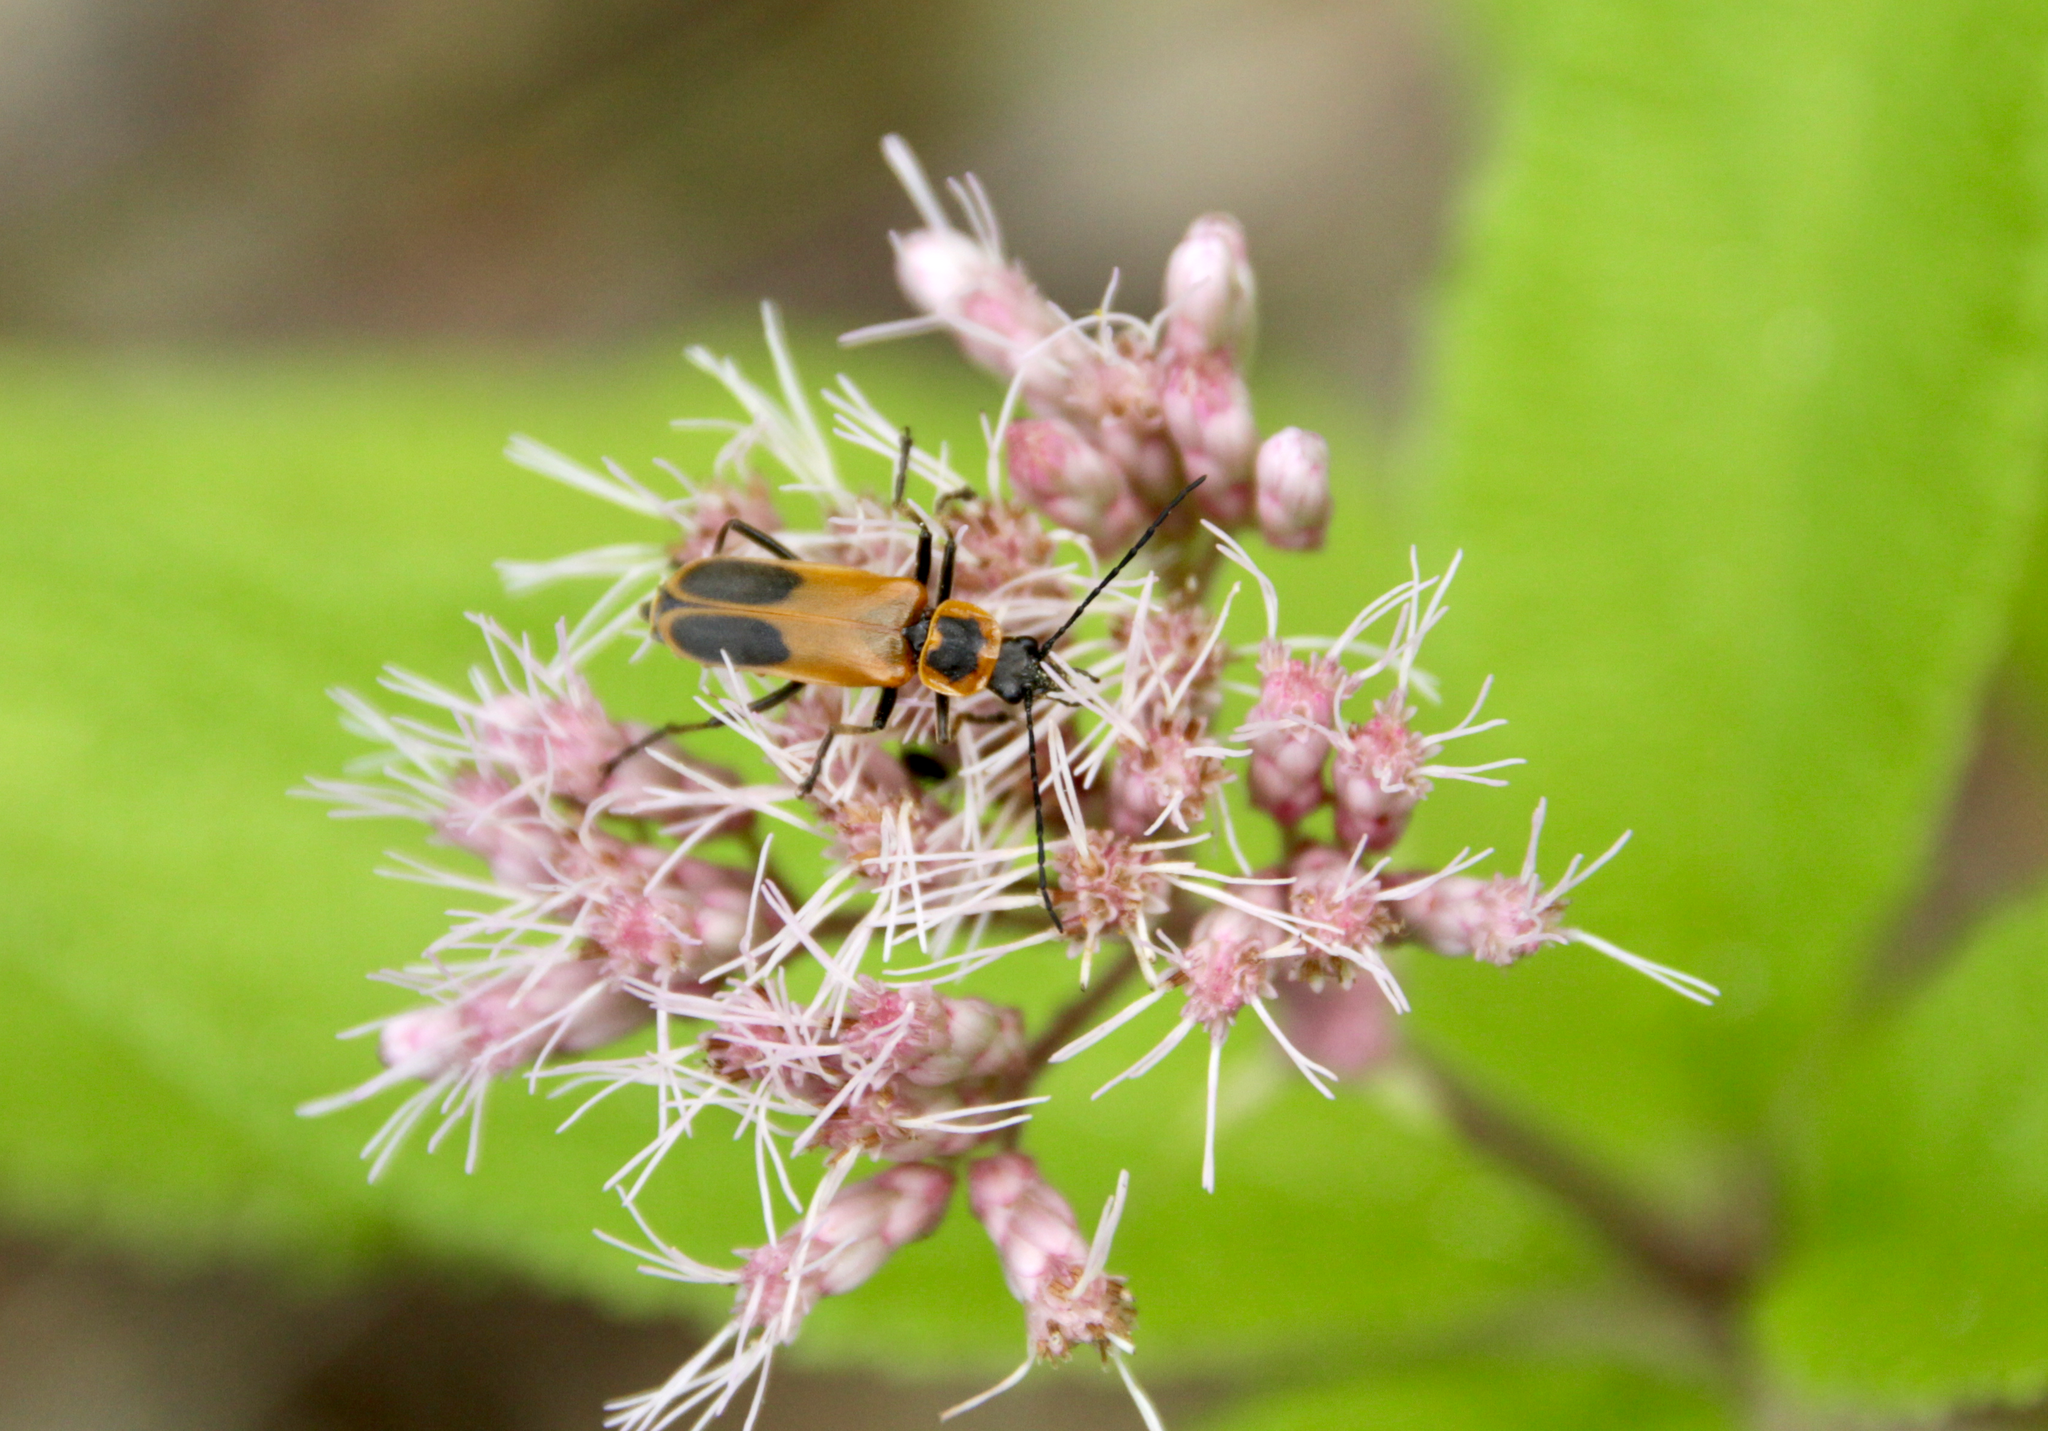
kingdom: Animalia
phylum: Arthropoda
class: Insecta
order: Coleoptera
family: Cantharidae
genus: Chauliognathus
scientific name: Chauliognathus pensylvanicus
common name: Goldenrod soldier beetle
